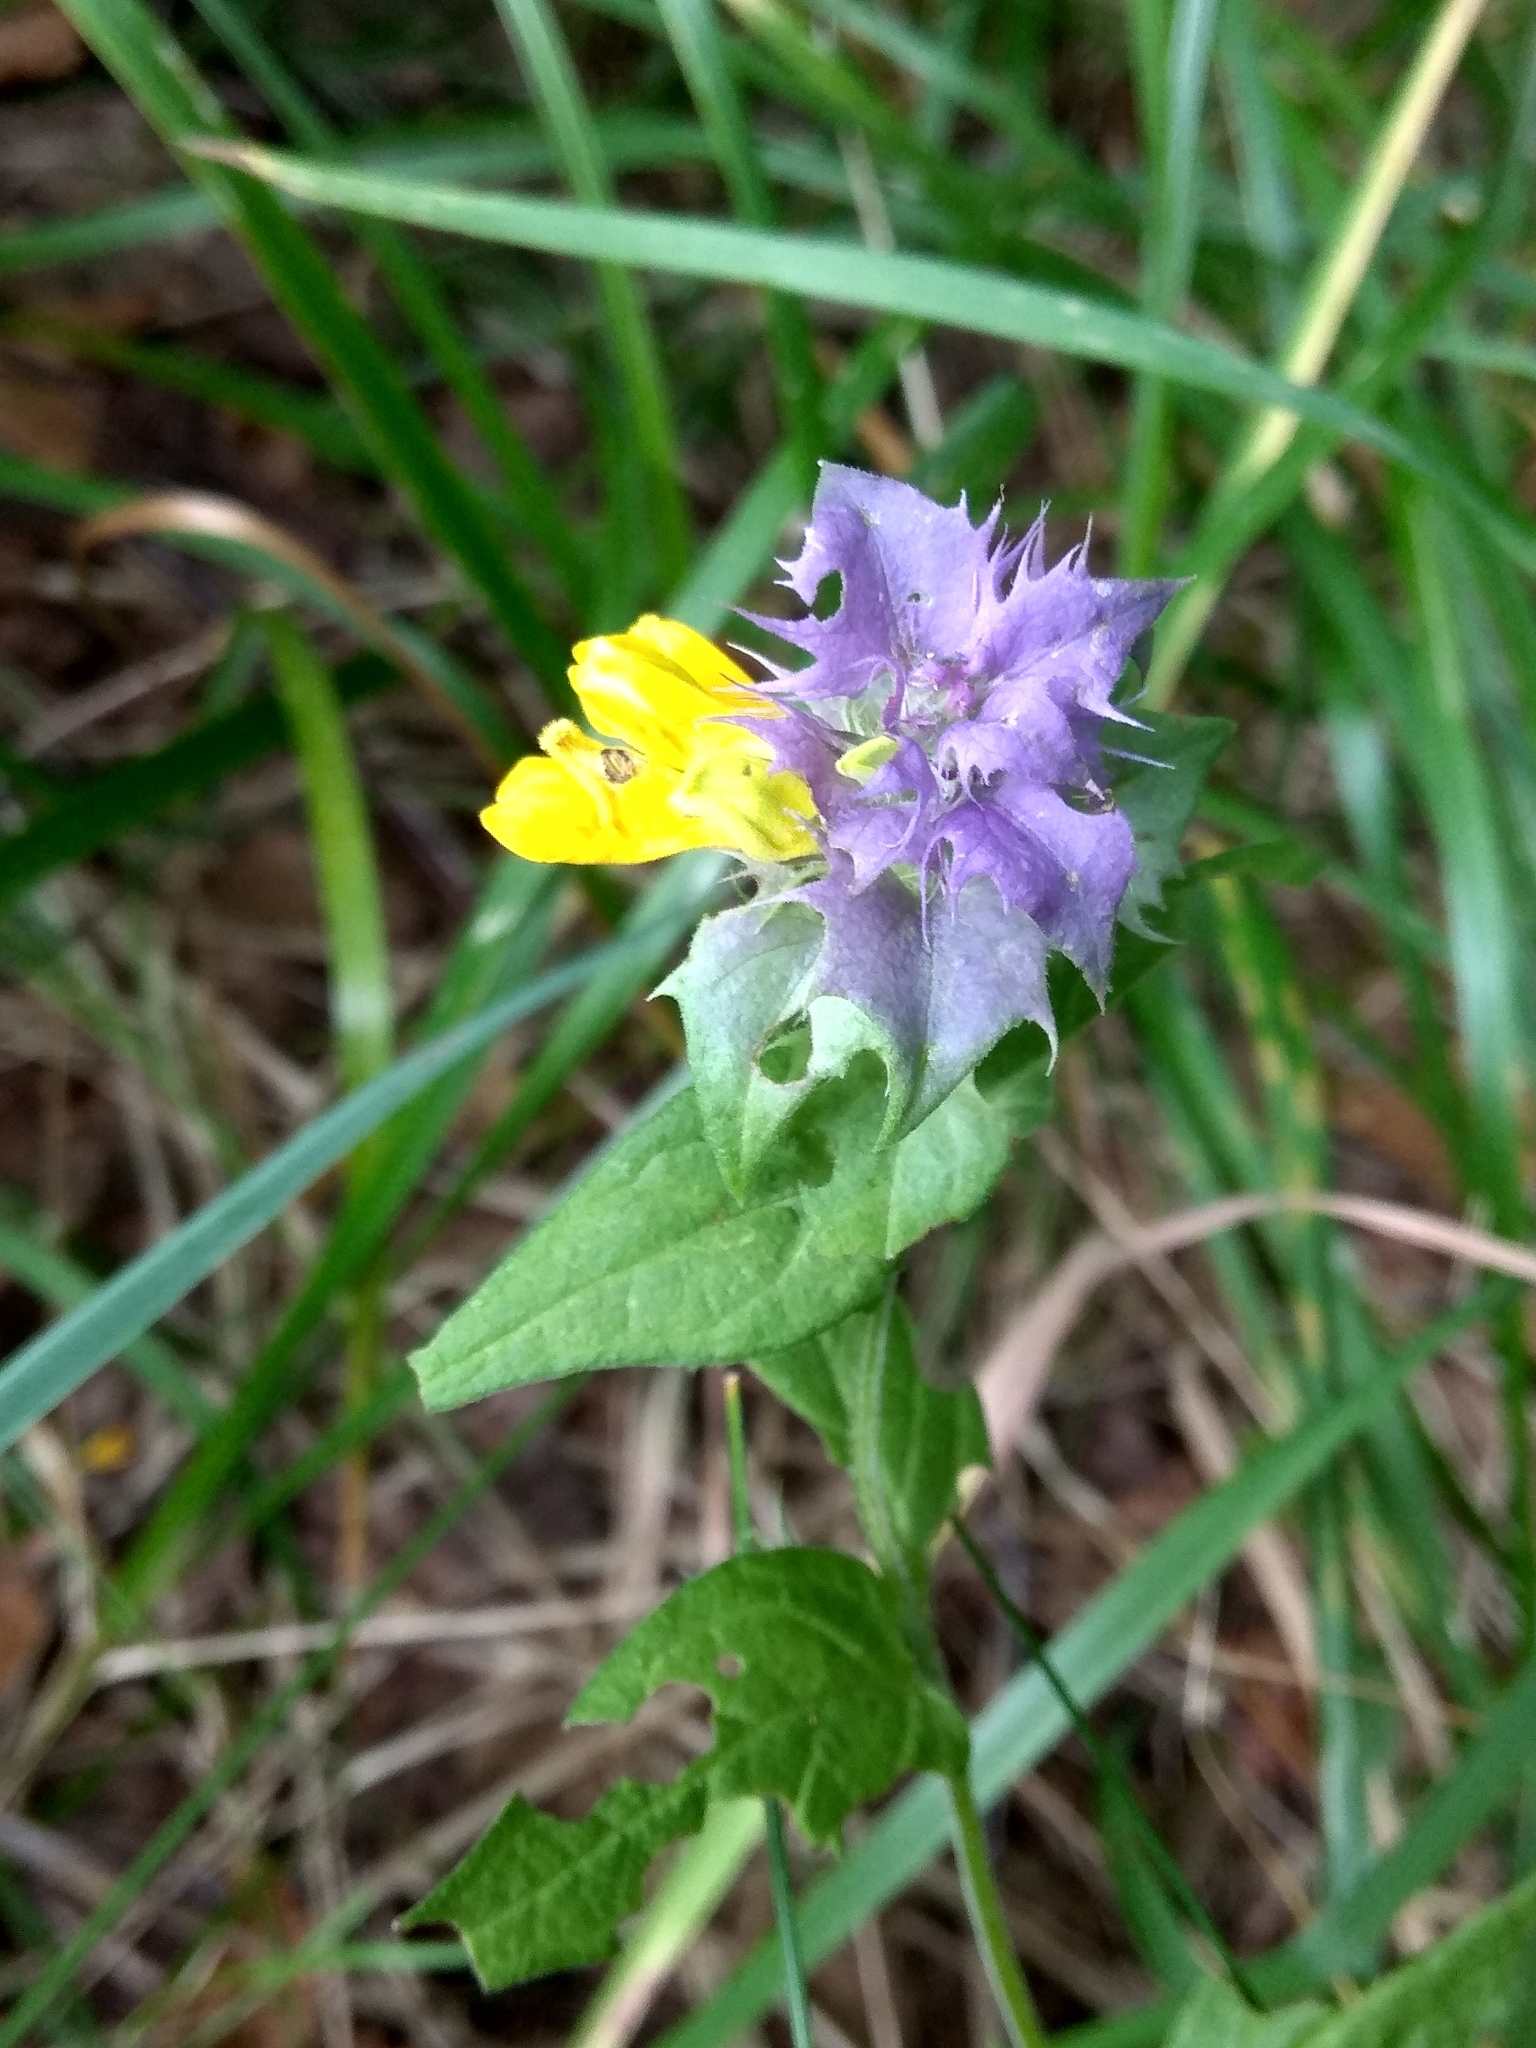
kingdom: Plantae
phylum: Tracheophyta
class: Magnoliopsida
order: Lamiales
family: Orobanchaceae
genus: Melampyrum
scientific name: Melampyrum nemorosum
